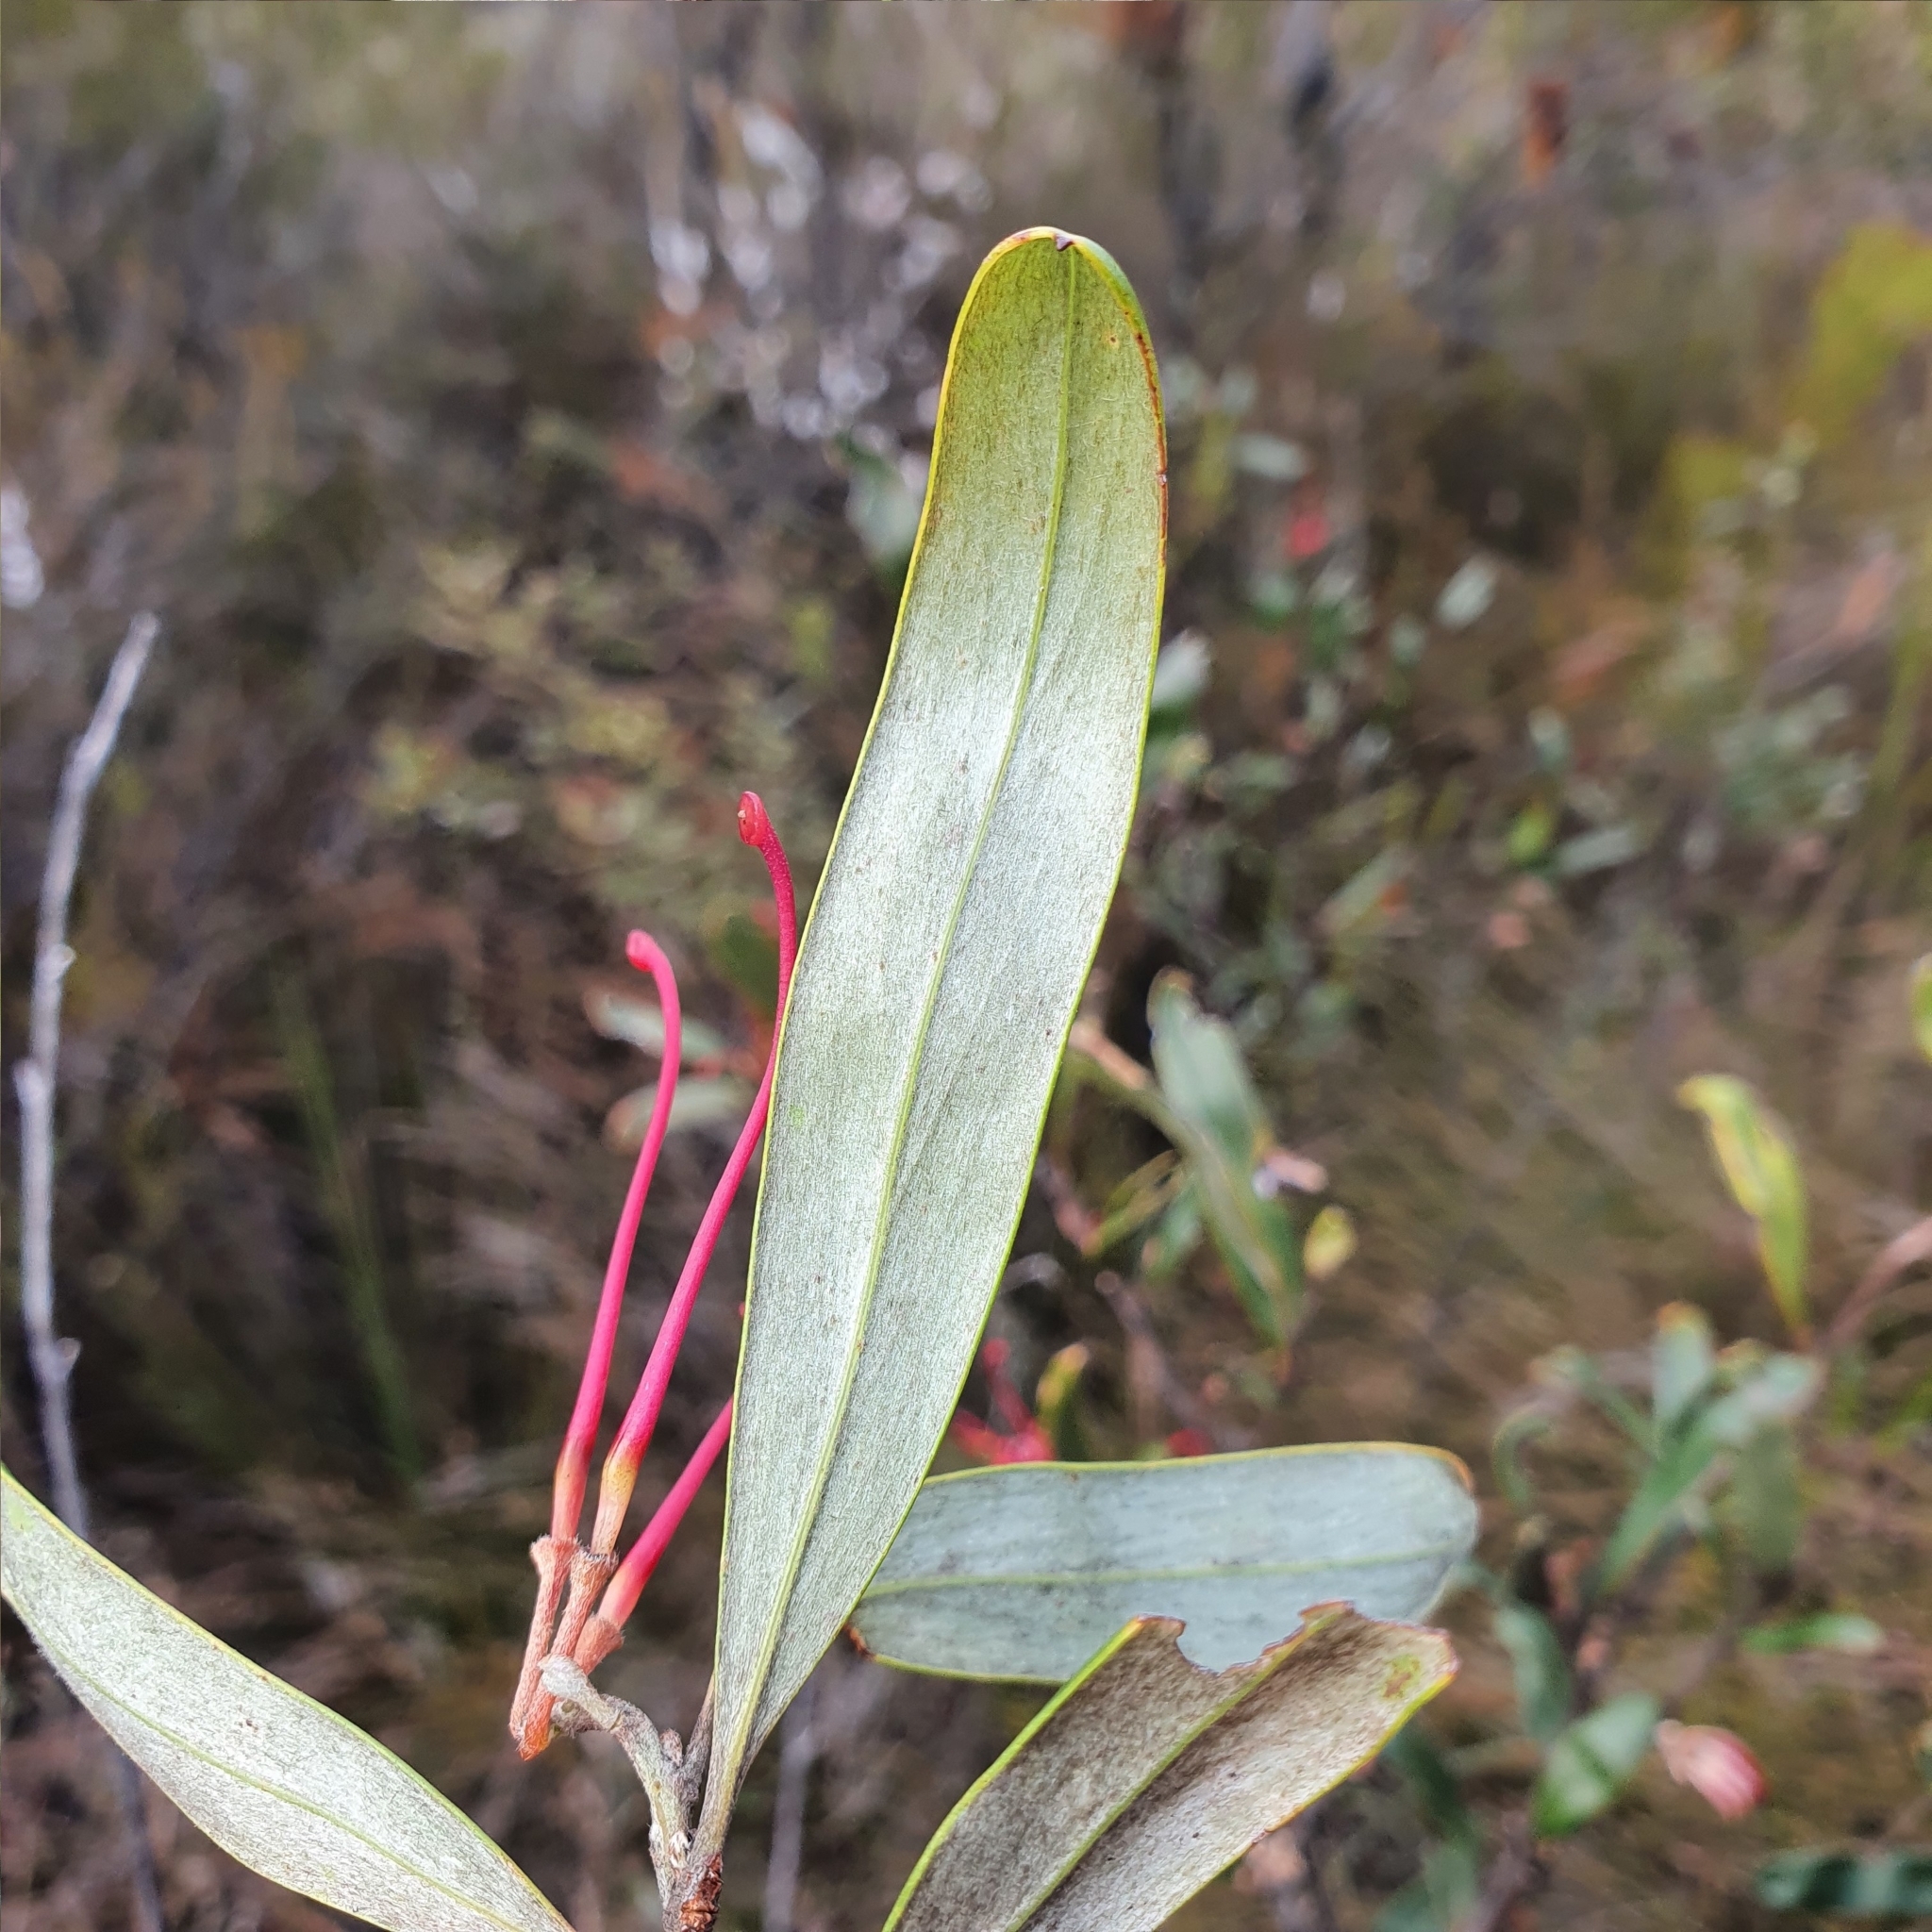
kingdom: Plantae
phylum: Tracheophyta
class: Magnoliopsida
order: Proteales
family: Proteaceae
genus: Grevillea
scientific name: Grevillea oleoides
